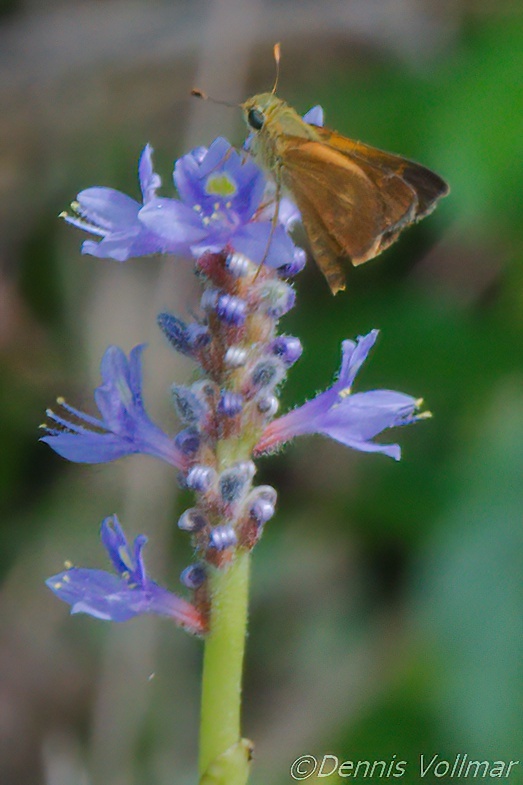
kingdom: Animalia
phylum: Arthropoda
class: Insecta
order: Lepidoptera
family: Hesperiidae
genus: Polites
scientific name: Polites otho
